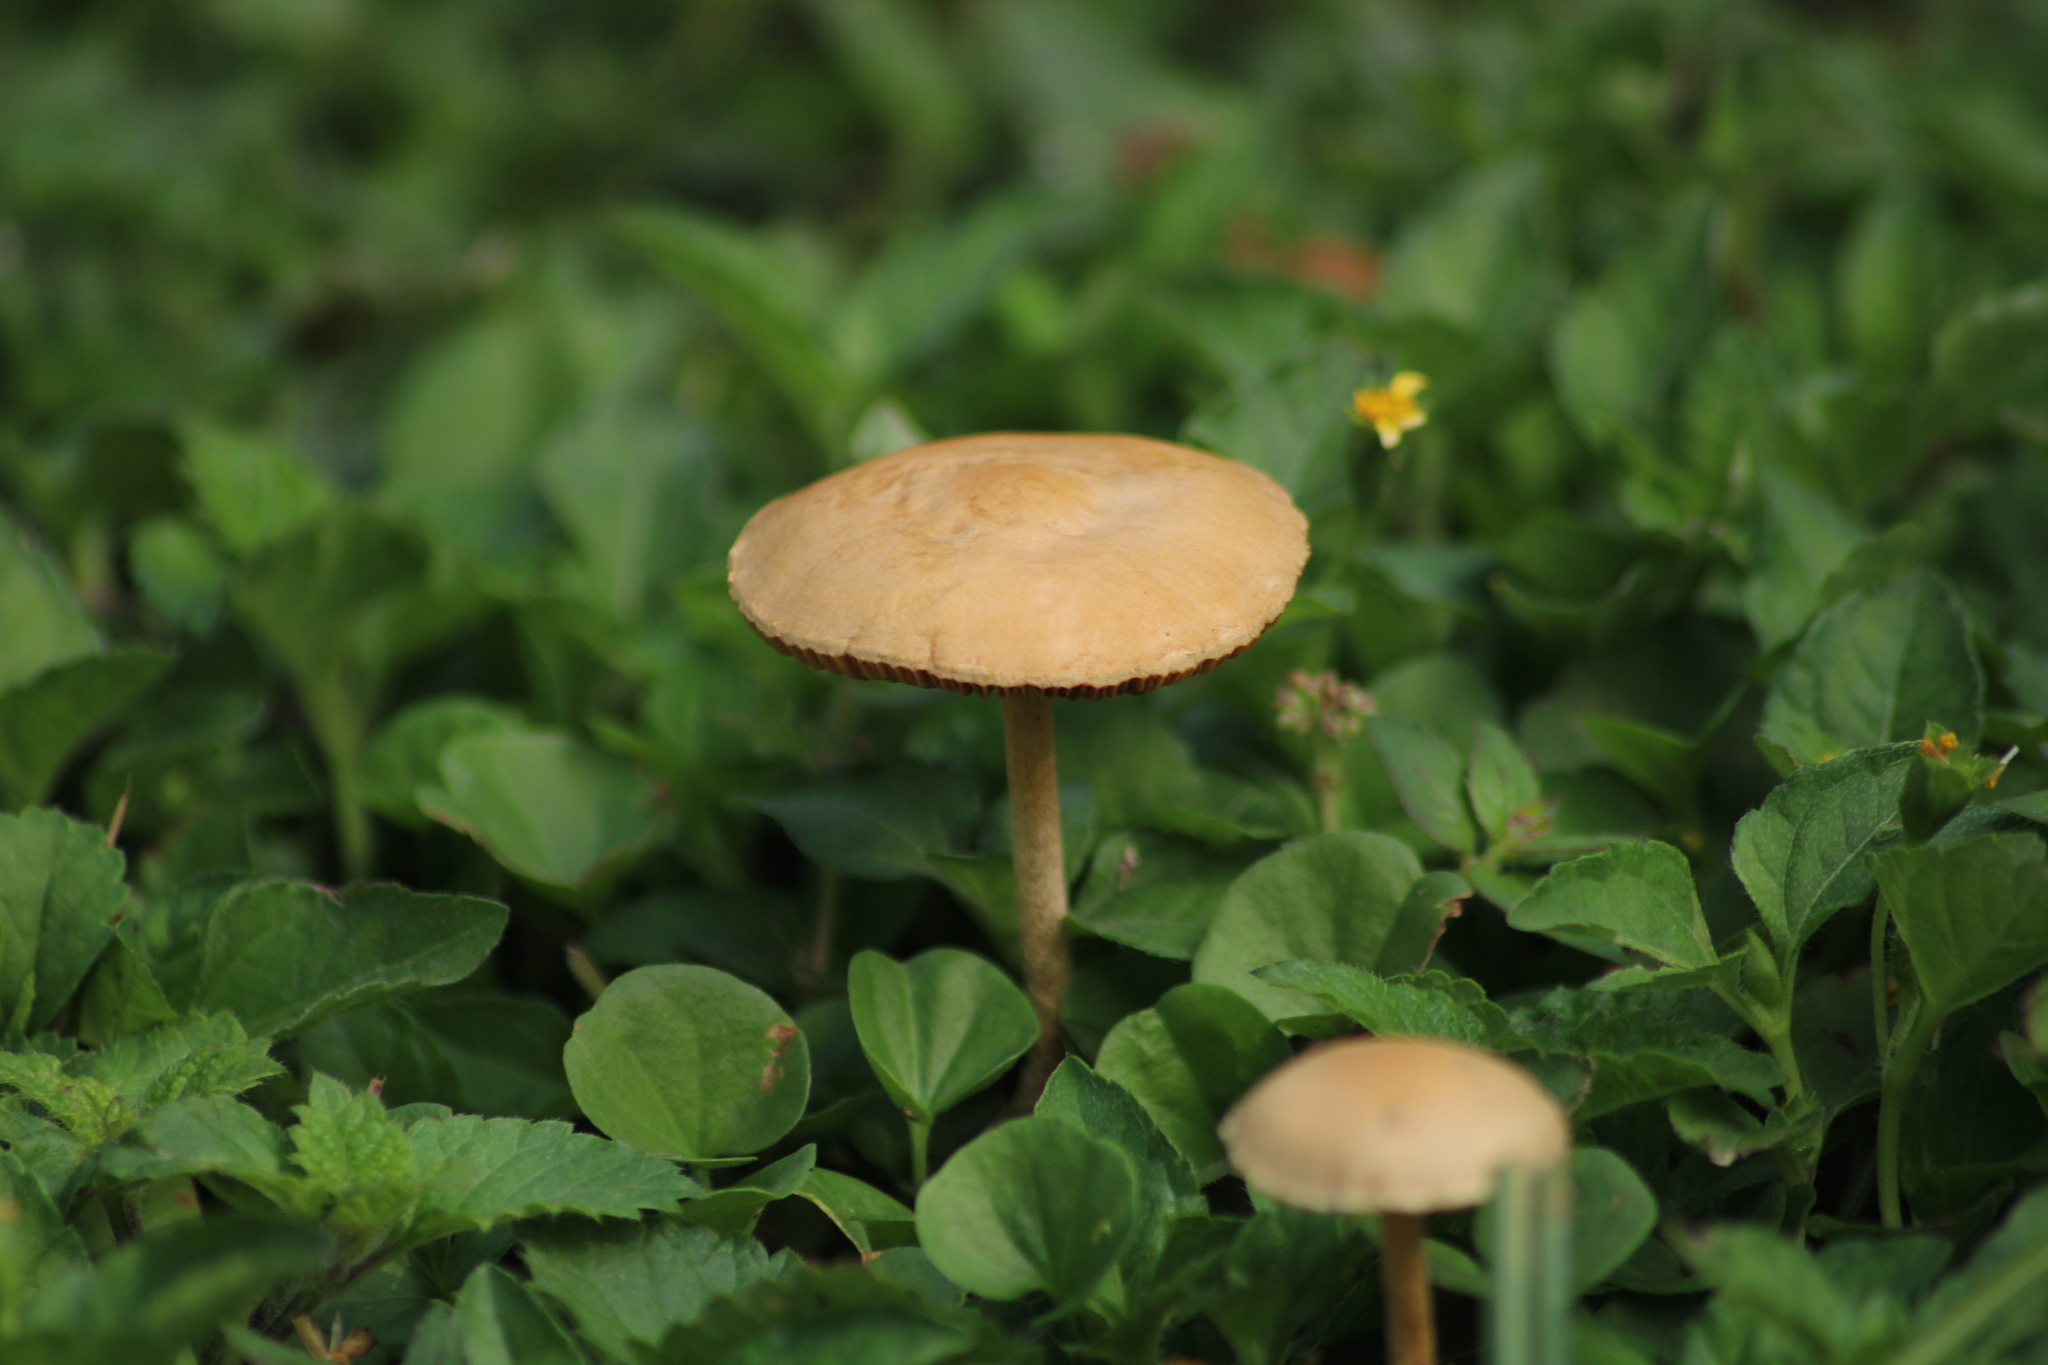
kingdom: Fungi
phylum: Basidiomycota
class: Agaricomycetes
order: Agaricales
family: Strophariaceae
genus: Agrocybe
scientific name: Agrocybe pediades
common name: Common fieldcap
